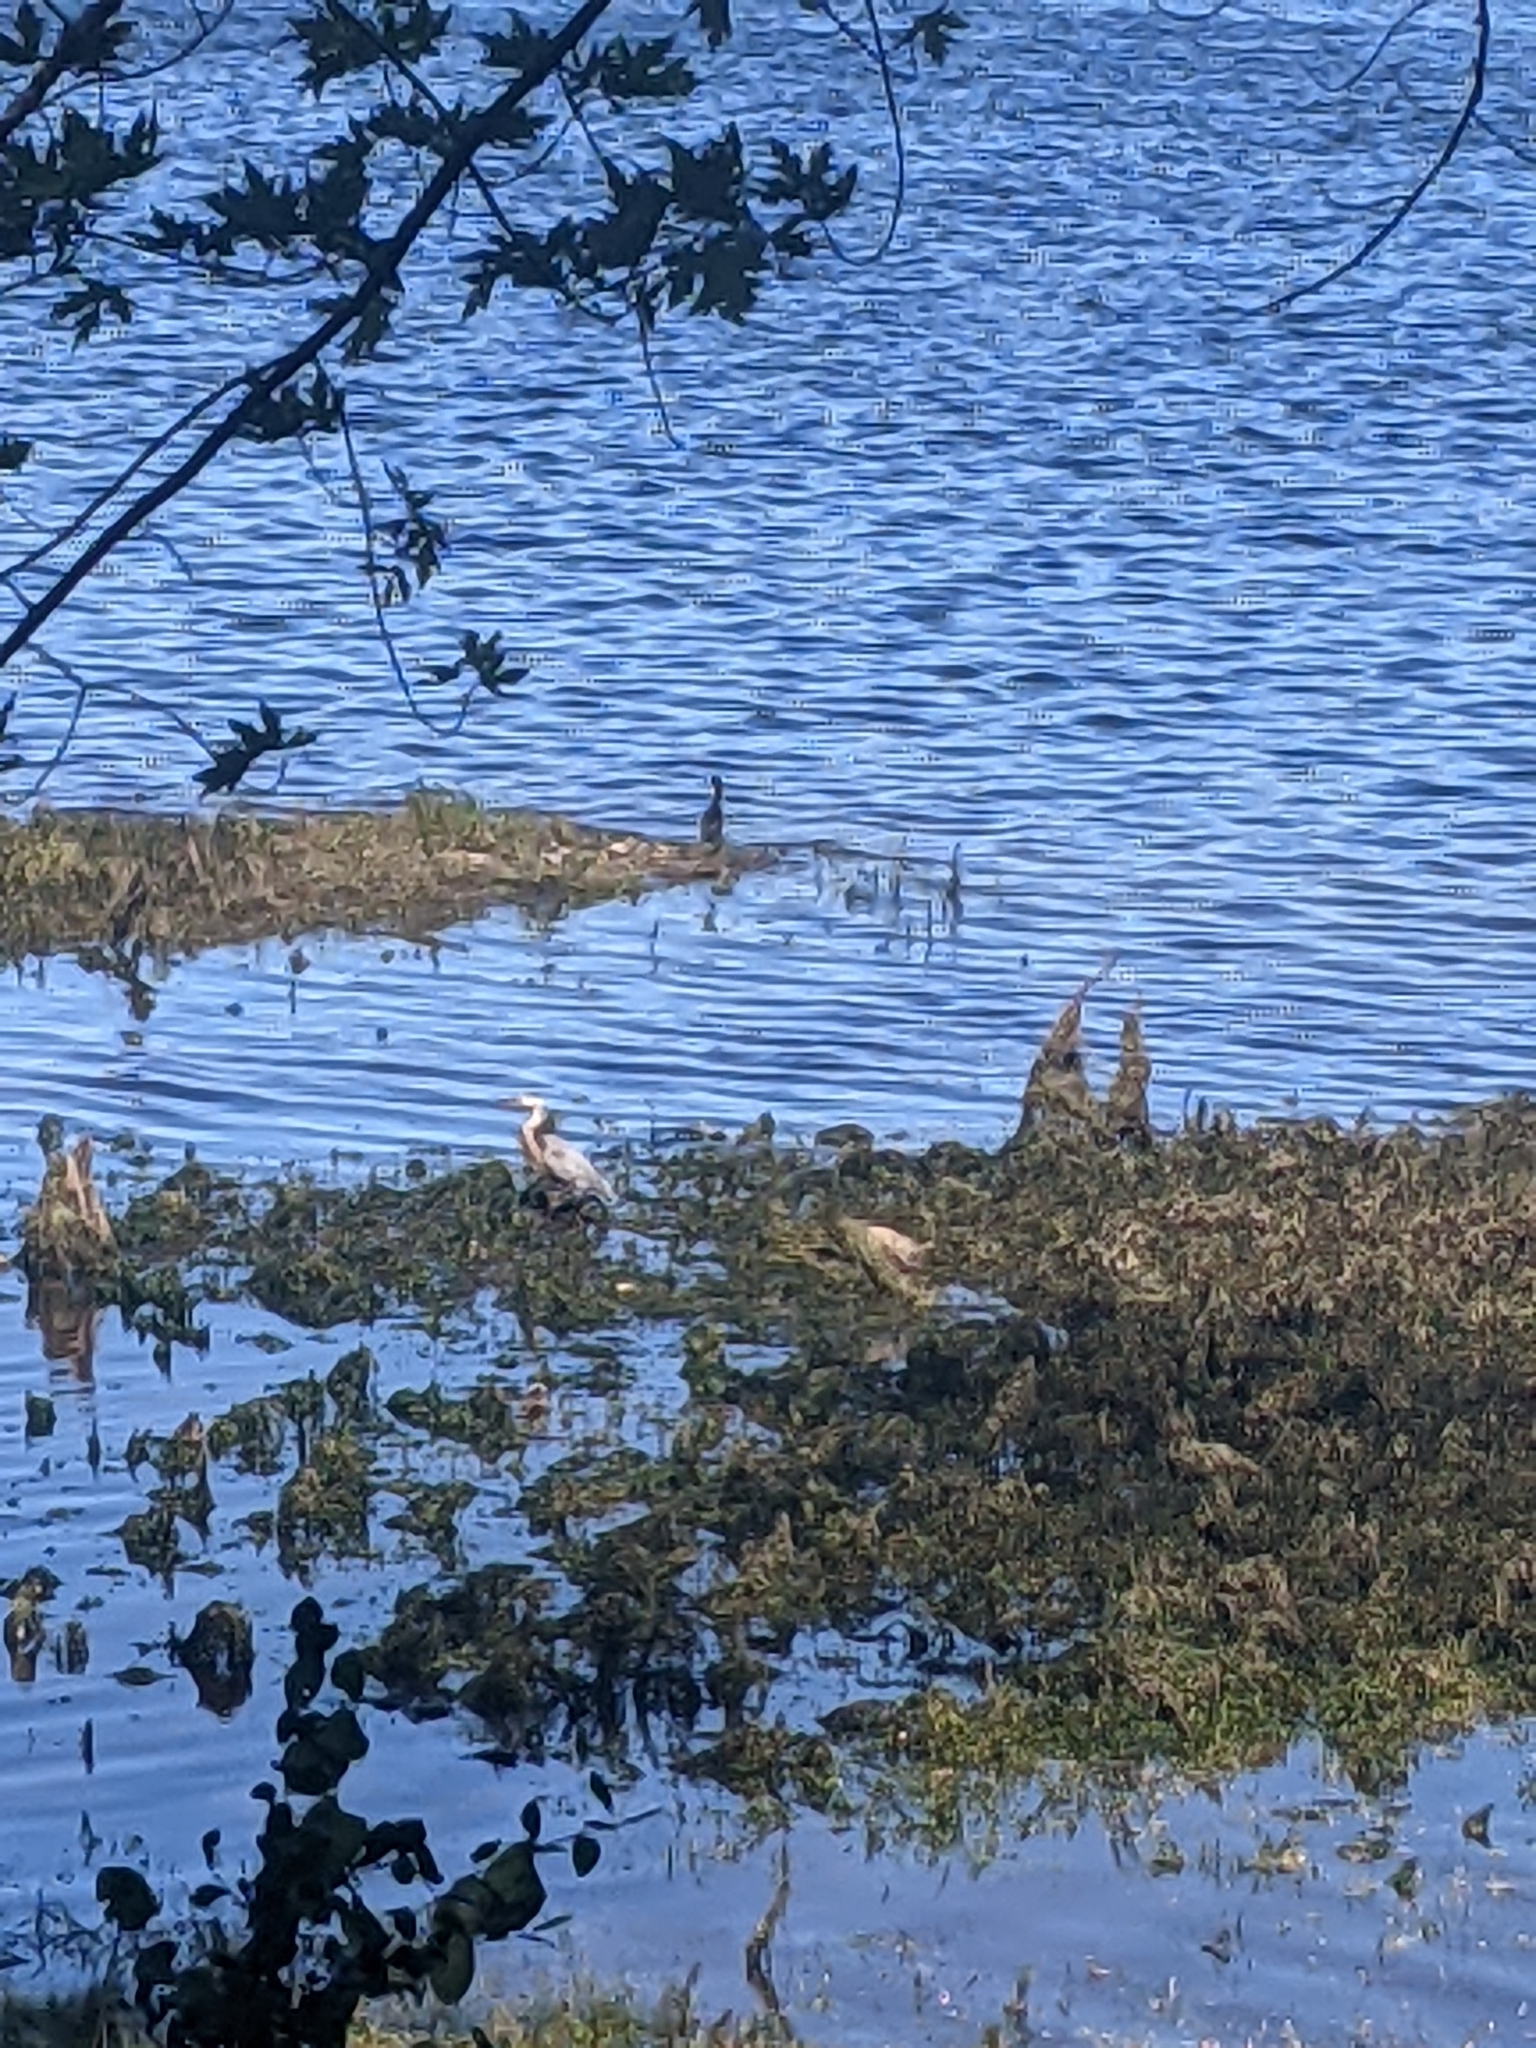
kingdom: Animalia
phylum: Chordata
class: Aves
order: Pelecaniformes
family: Ardeidae
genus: Ardea
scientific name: Ardea herodias
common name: Great blue heron
